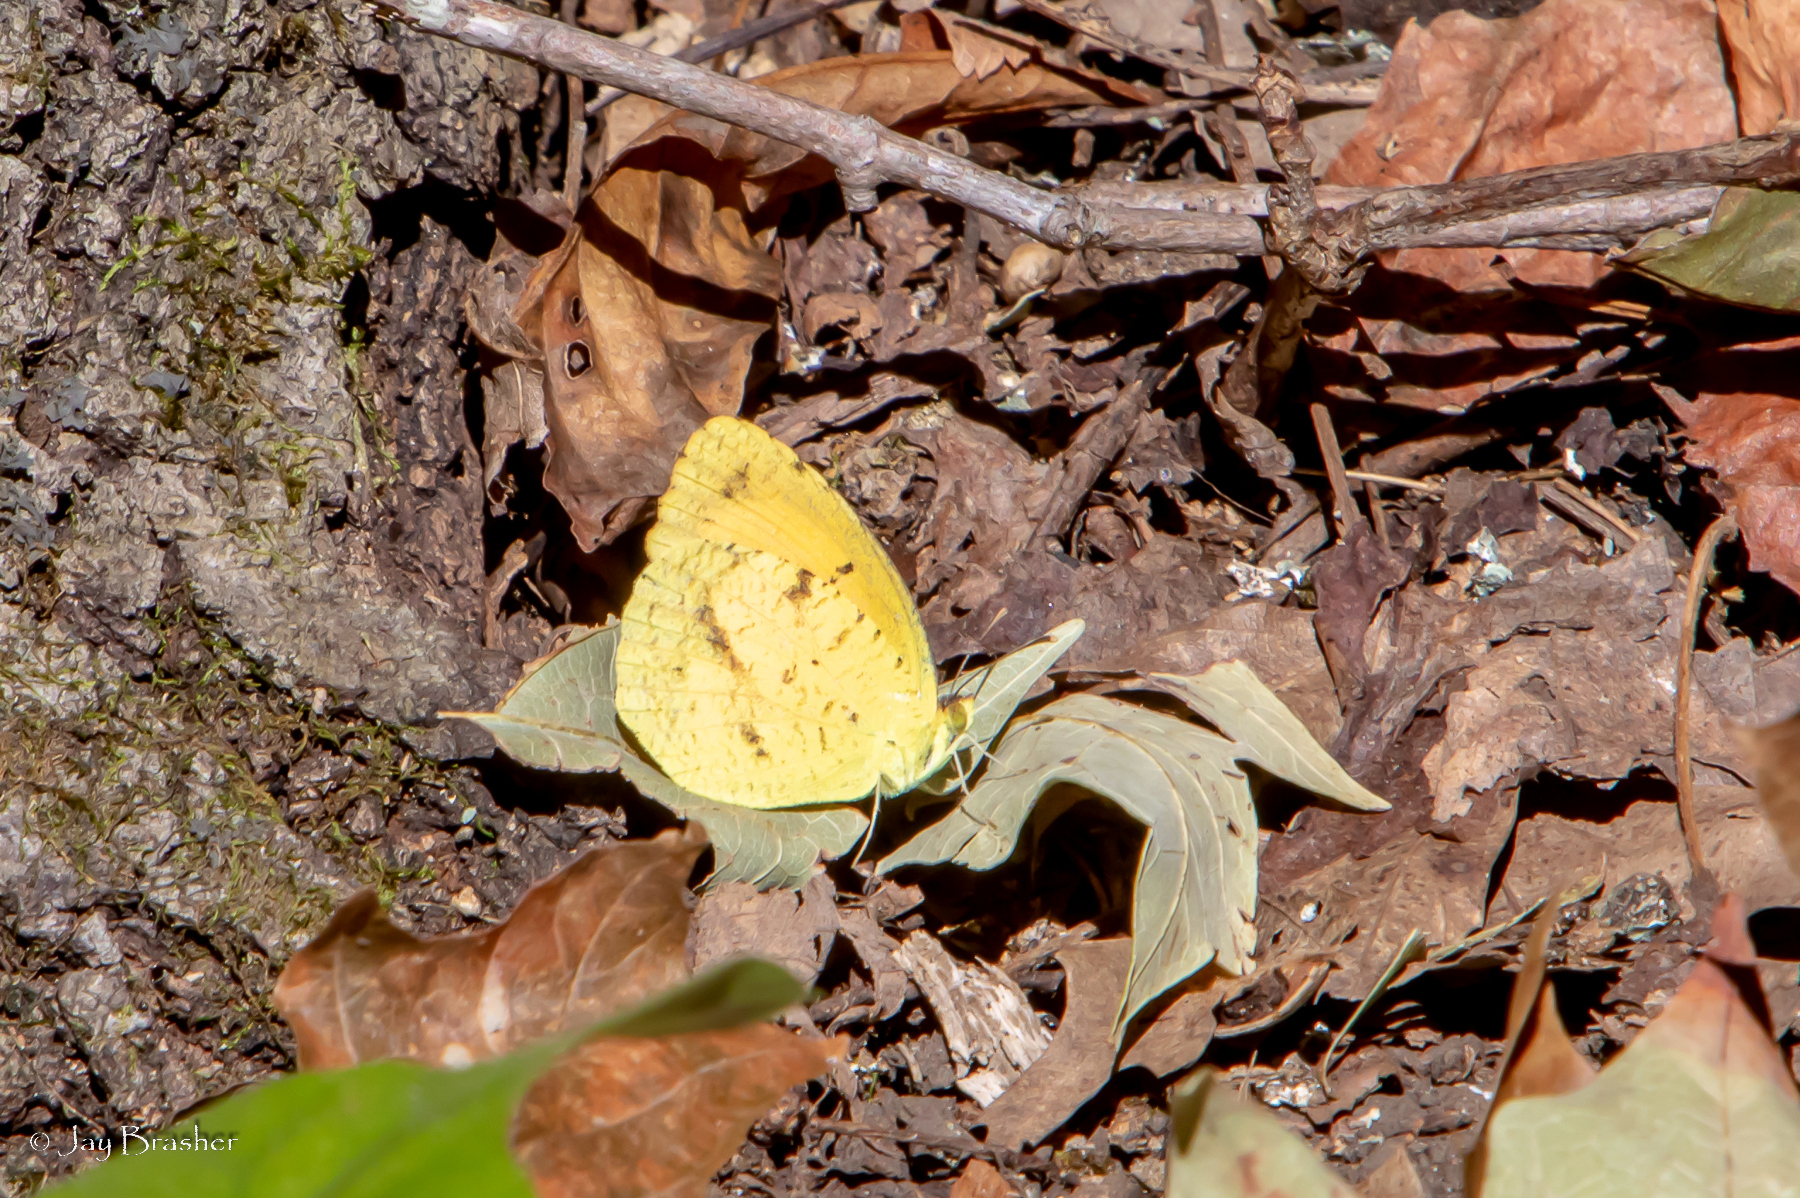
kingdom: Animalia
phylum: Arthropoda
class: Insecta
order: Lepidoptera
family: Pieridae
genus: Abaeis
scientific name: Abaeis nicippe
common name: Sleepy orange
